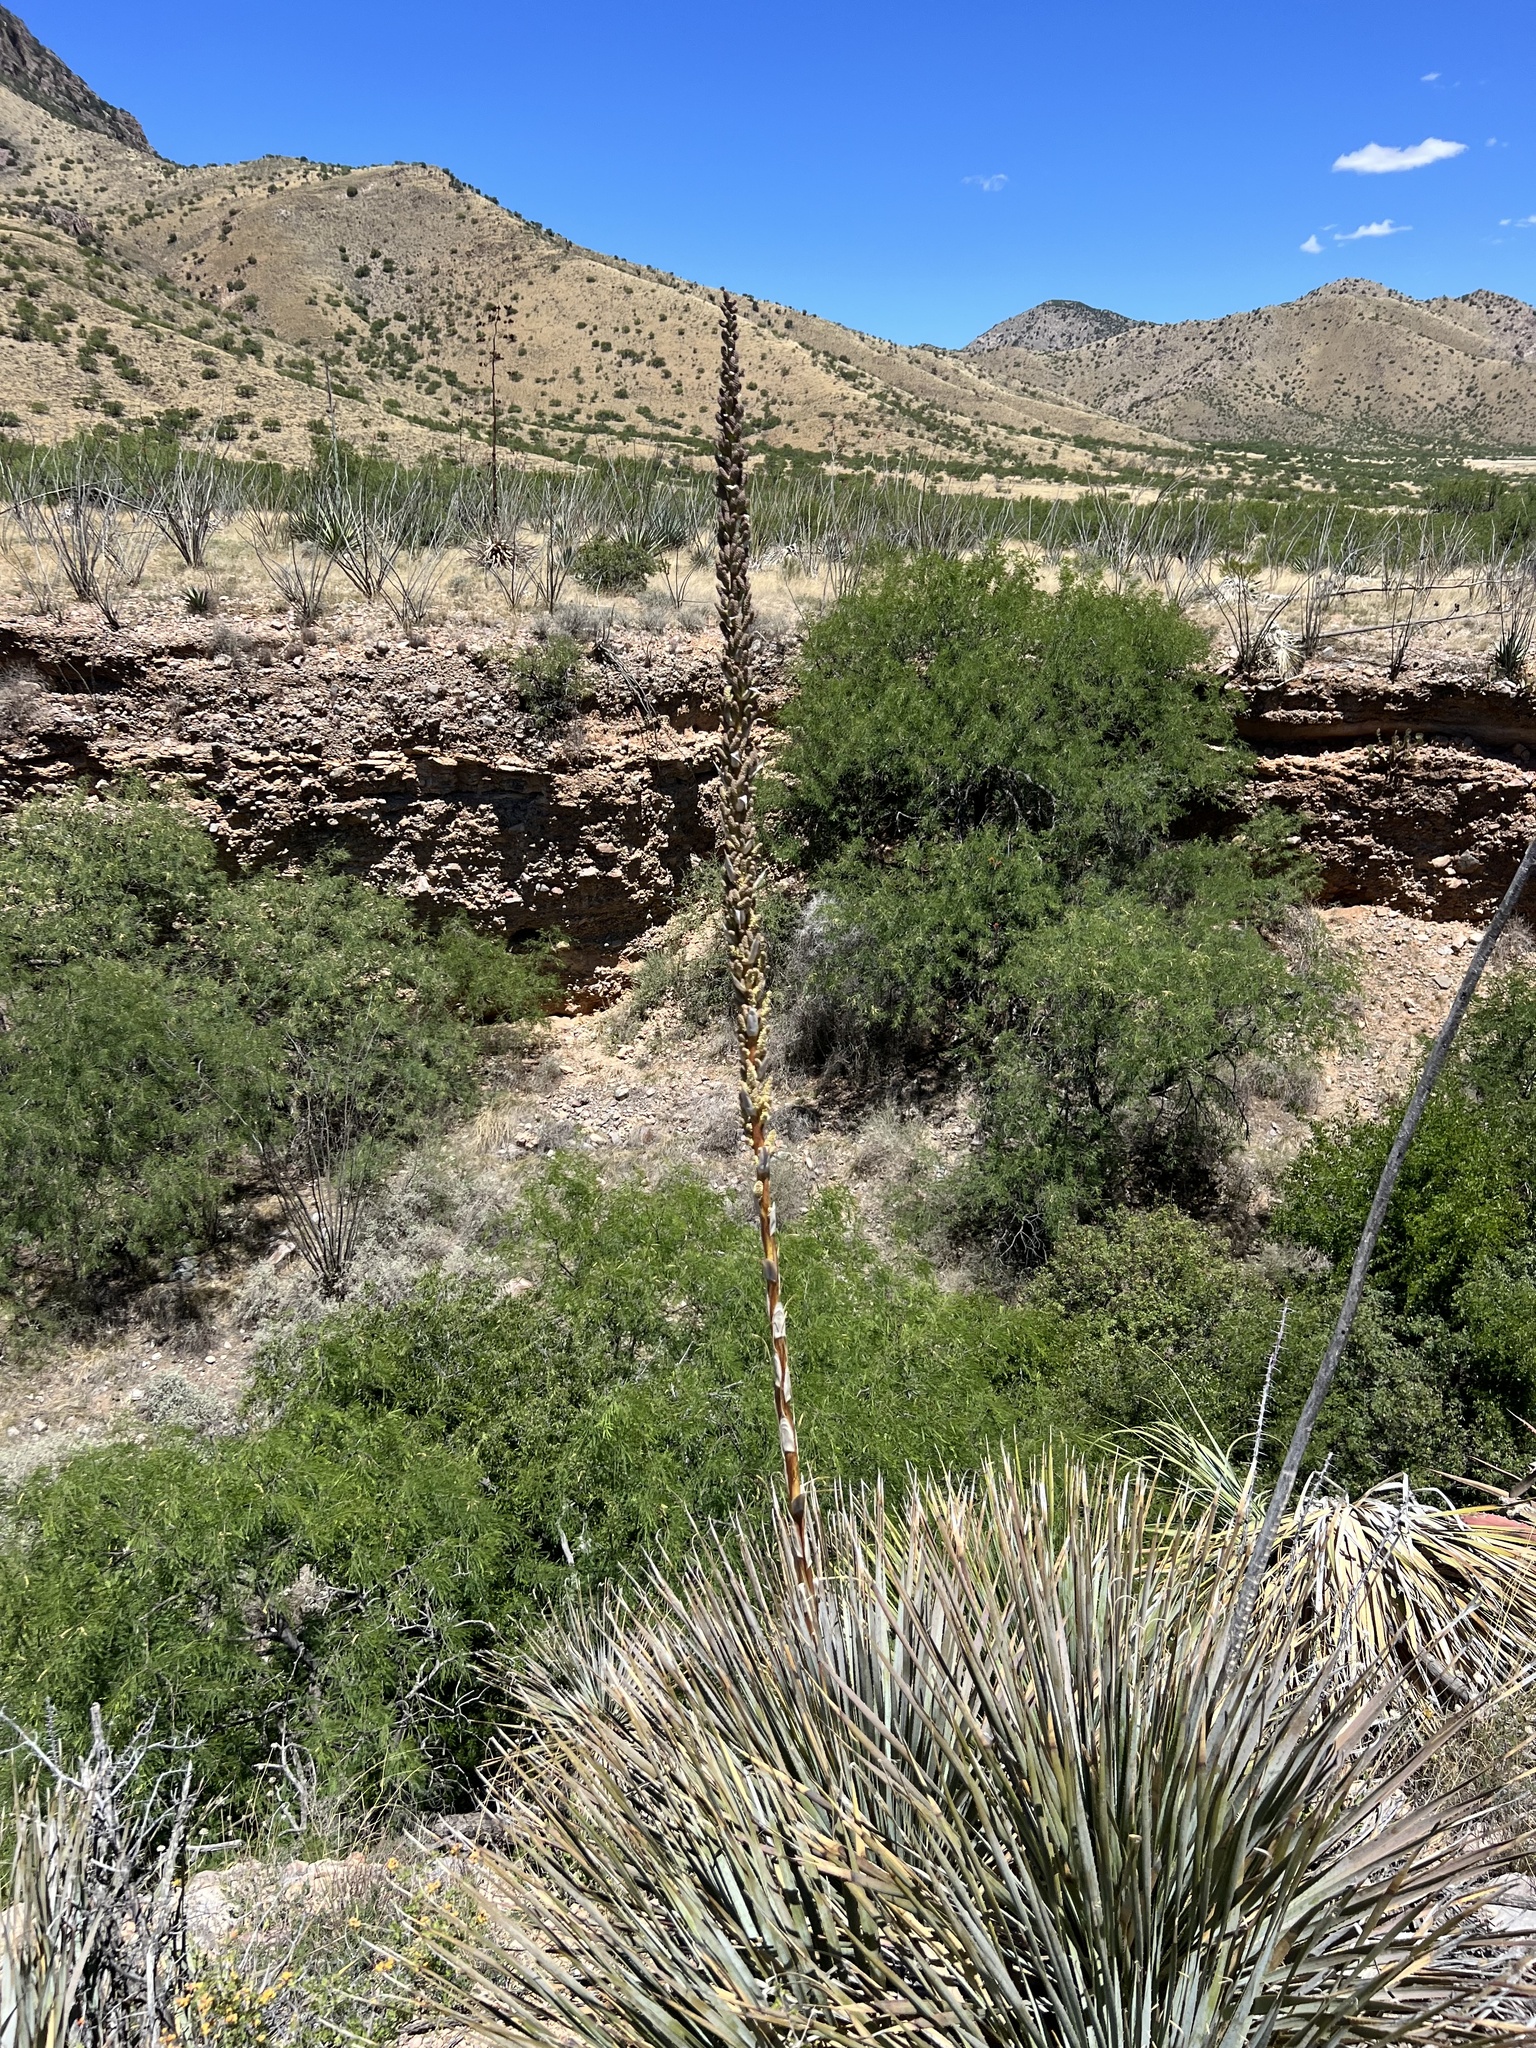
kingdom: Plantae
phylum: Tracheophyta
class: Liliopsida
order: Asparagales
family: Asparagaceae
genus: Dasylirion
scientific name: Dasylirion wheeleri
